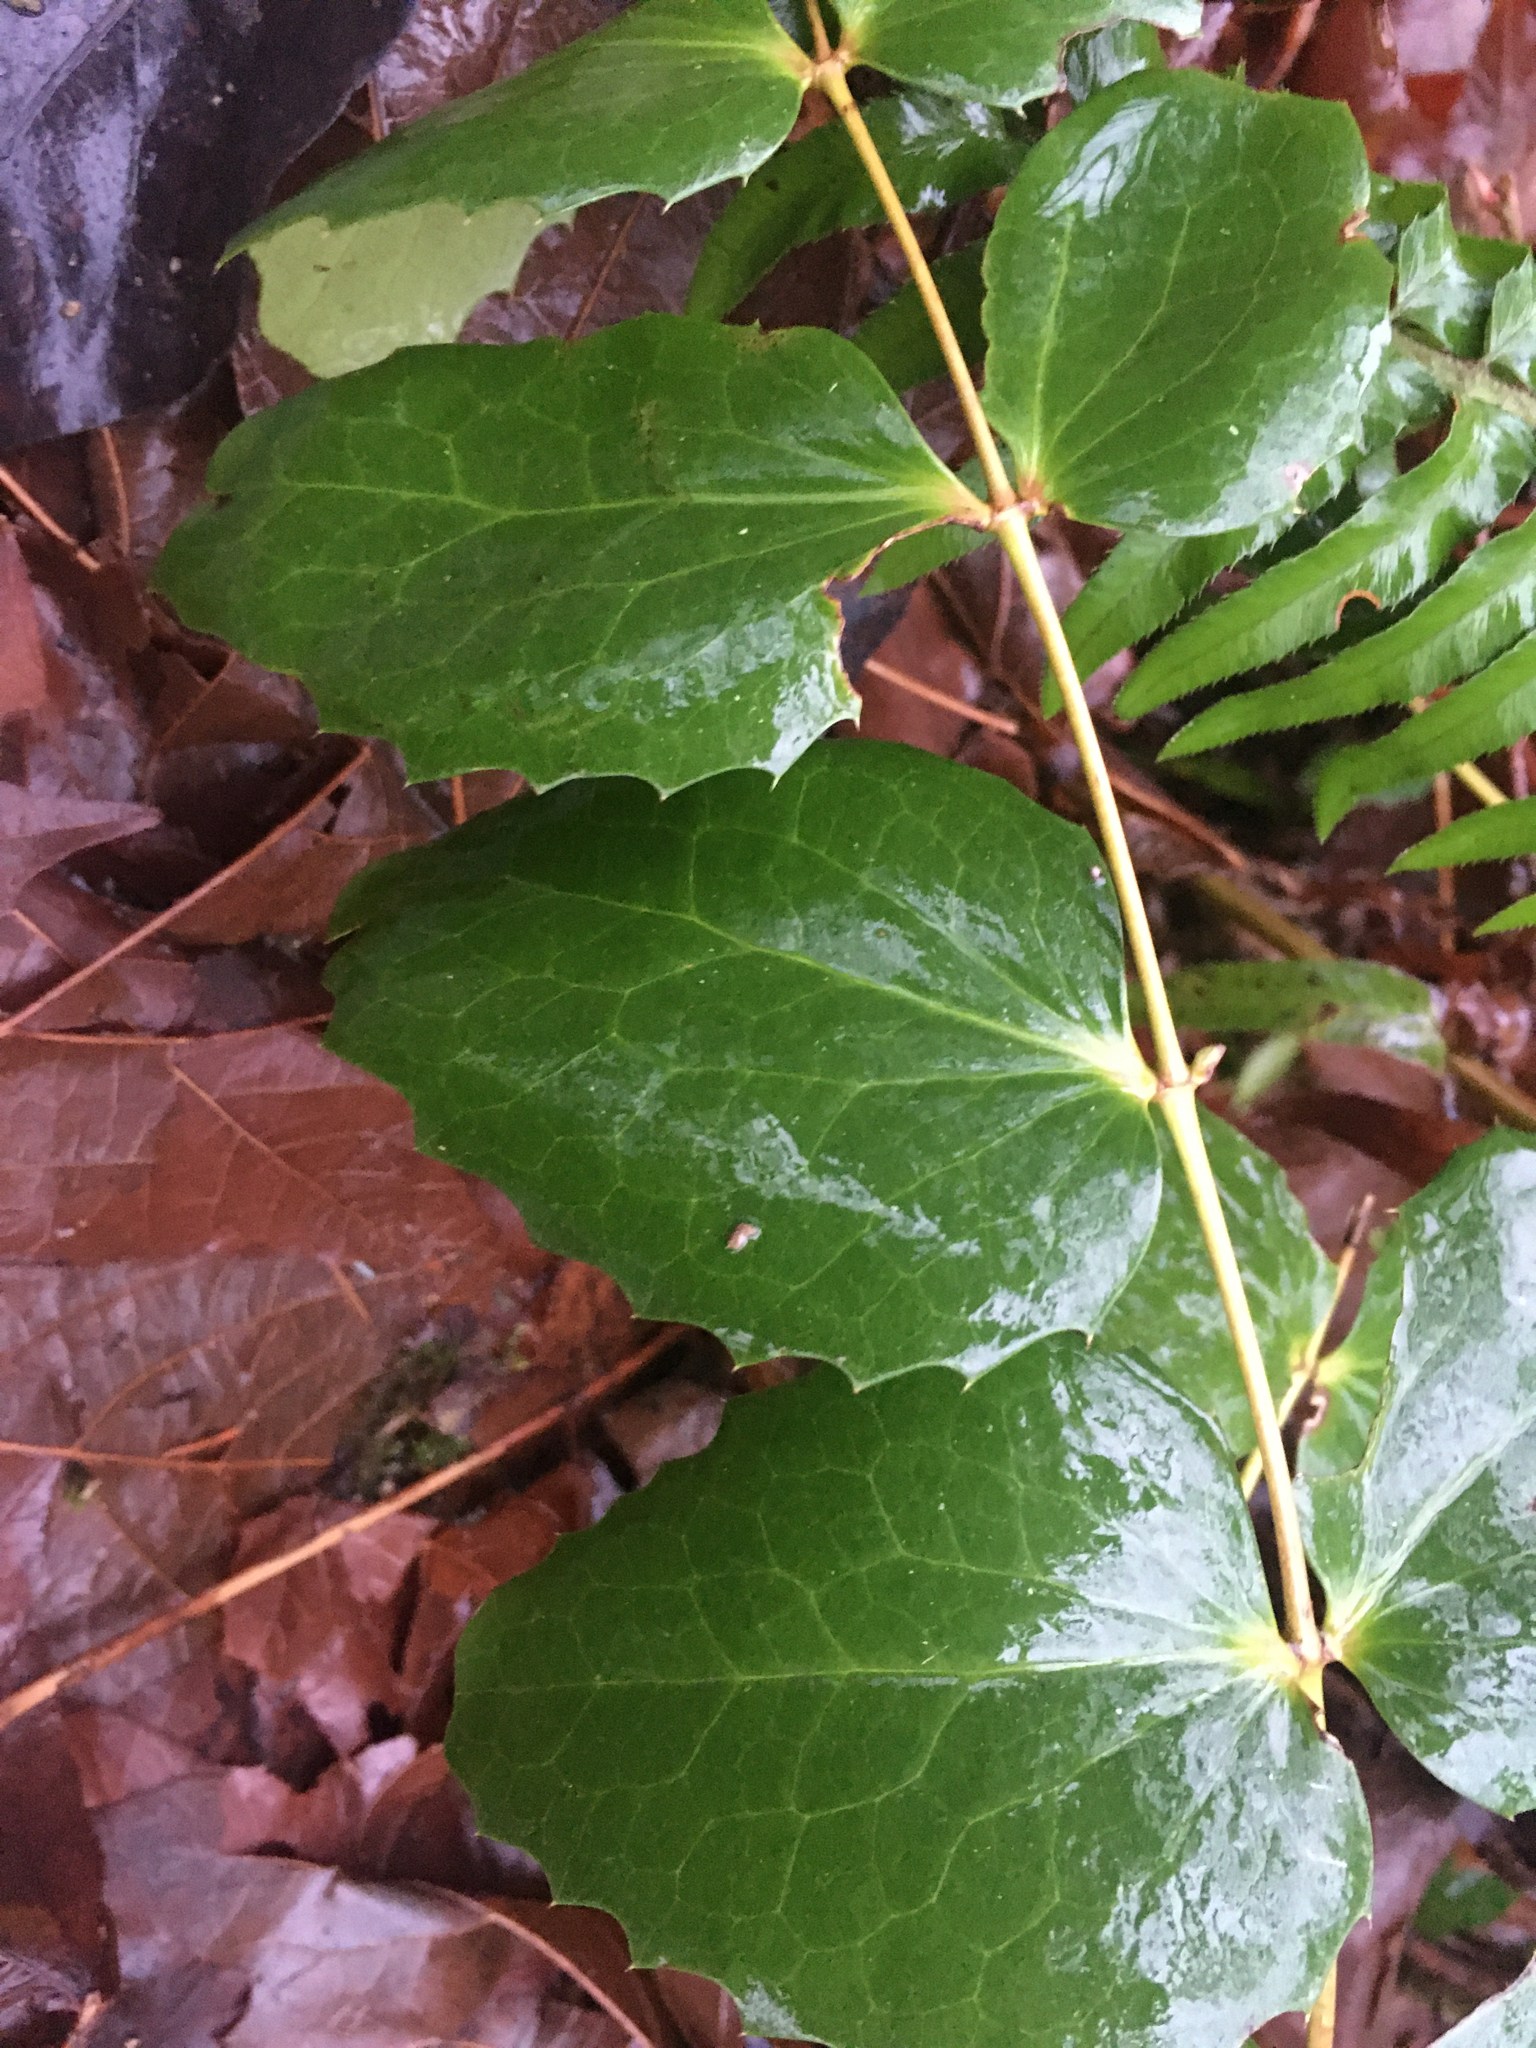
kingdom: Plantae
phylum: Tracheophyta
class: Magnoliopsida
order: Ranunculales
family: Berberidaceae
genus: Mahonia
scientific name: Mahonia nervosa
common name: Cascade oregon-grape
